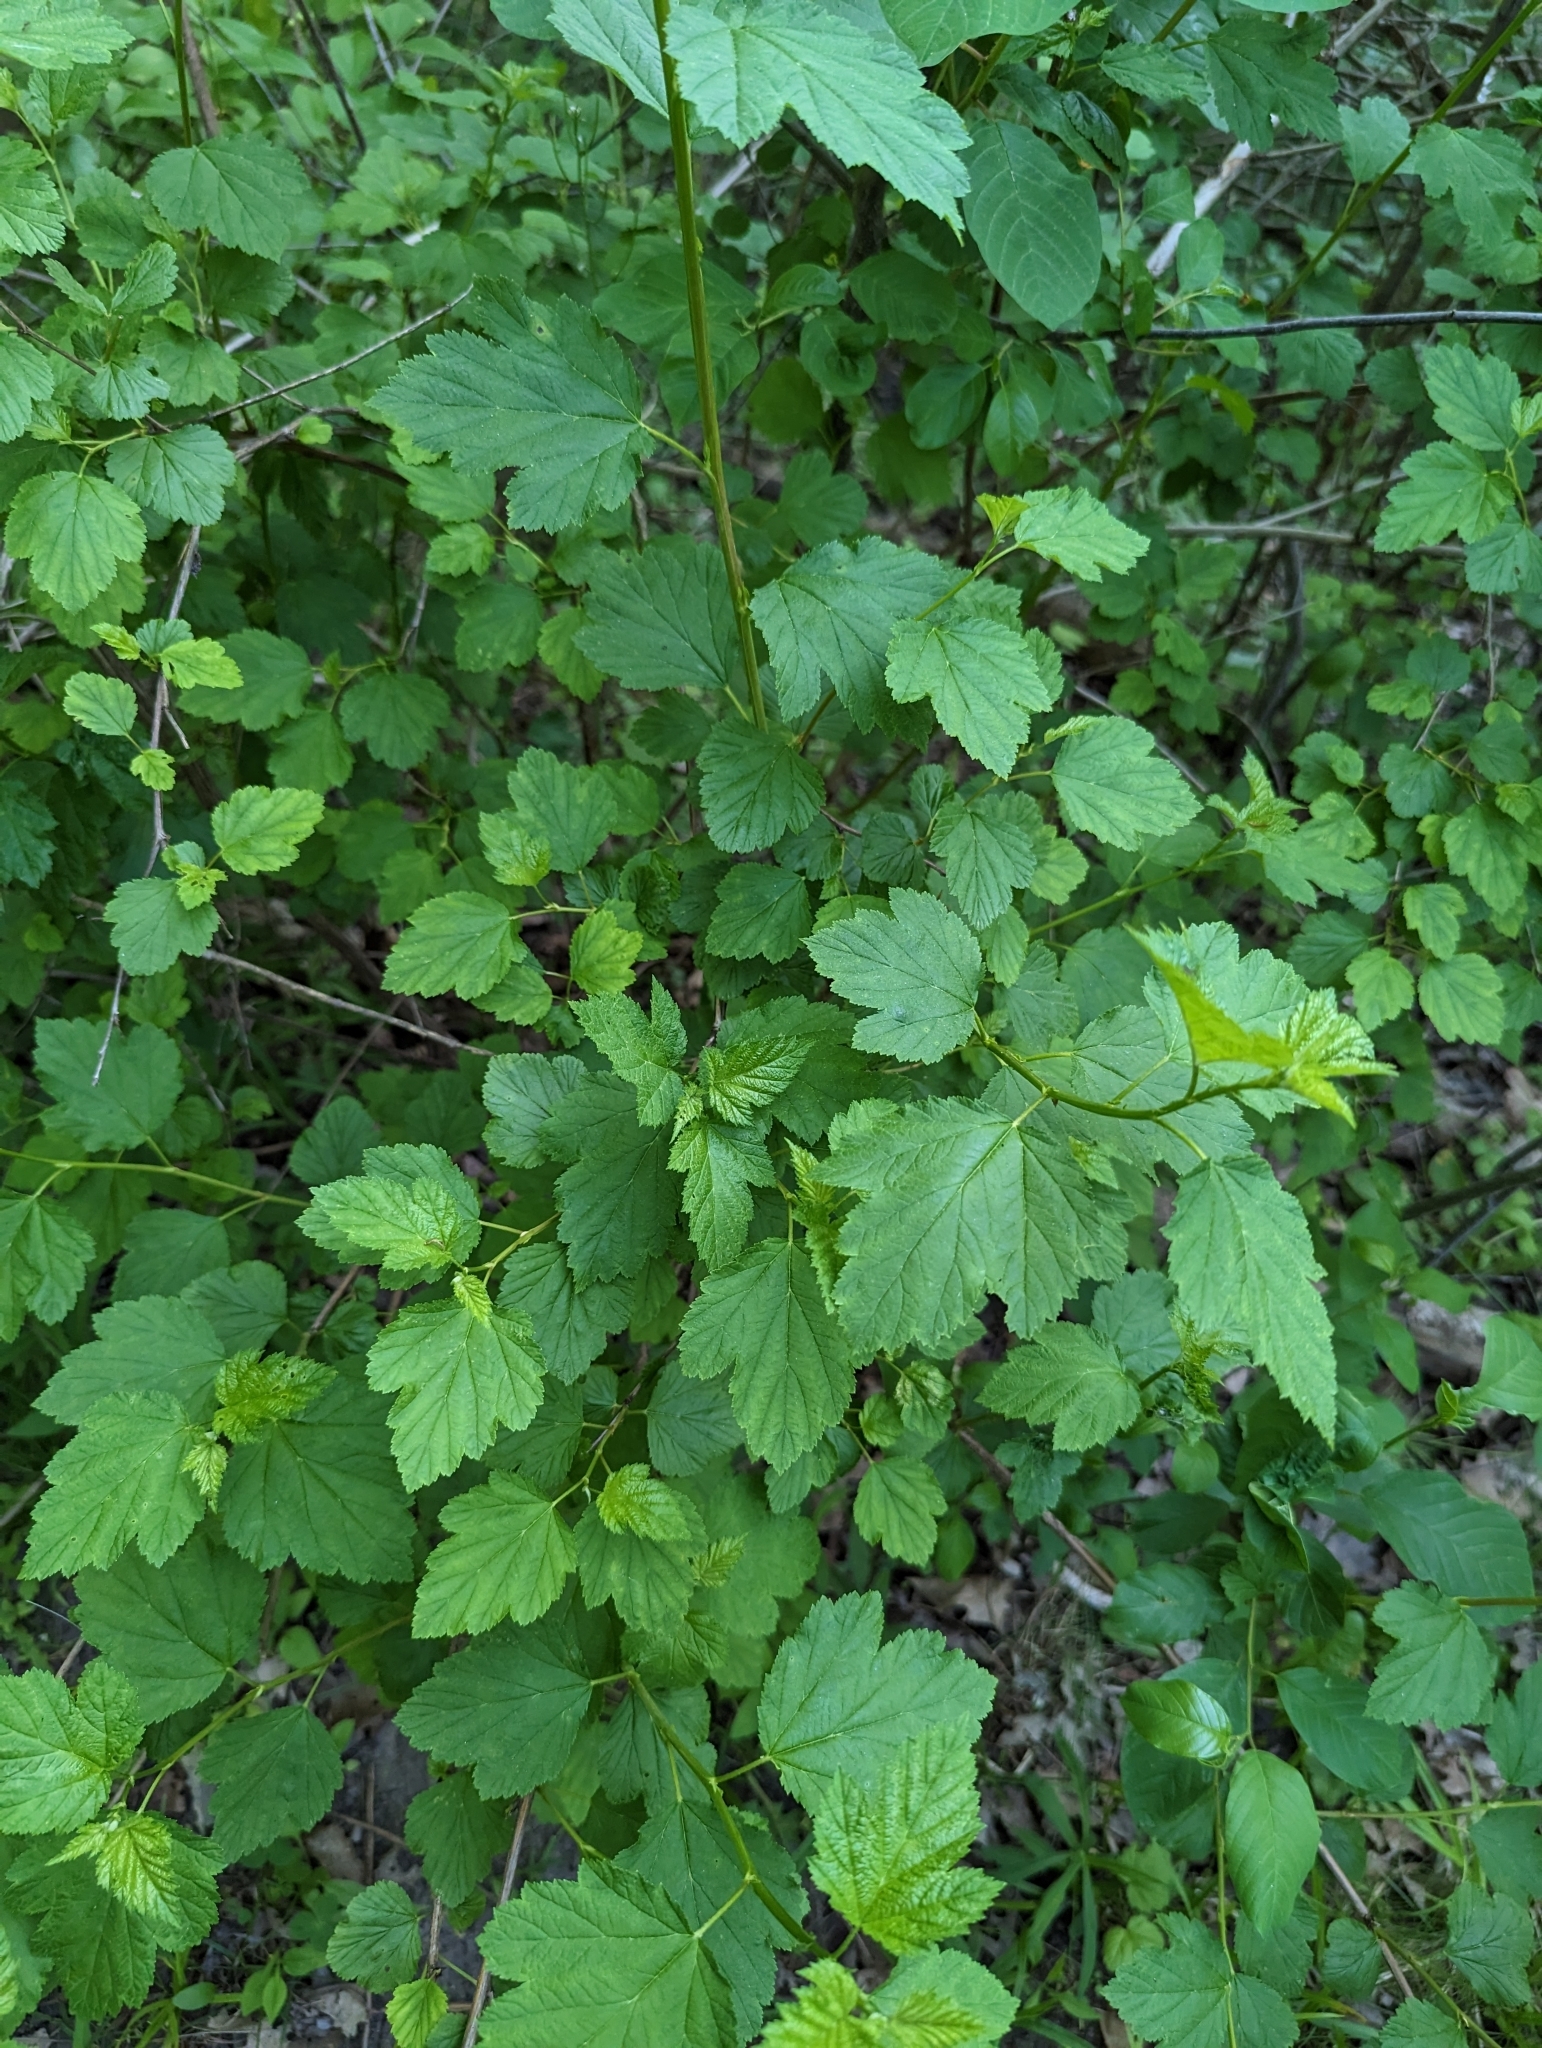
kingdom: Plantae
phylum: Tracheophyta
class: Magnoliopsida
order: Rosales
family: Rosaceae
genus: Physocarpus
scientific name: Physocarpus opulifolius
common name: Ninebark
